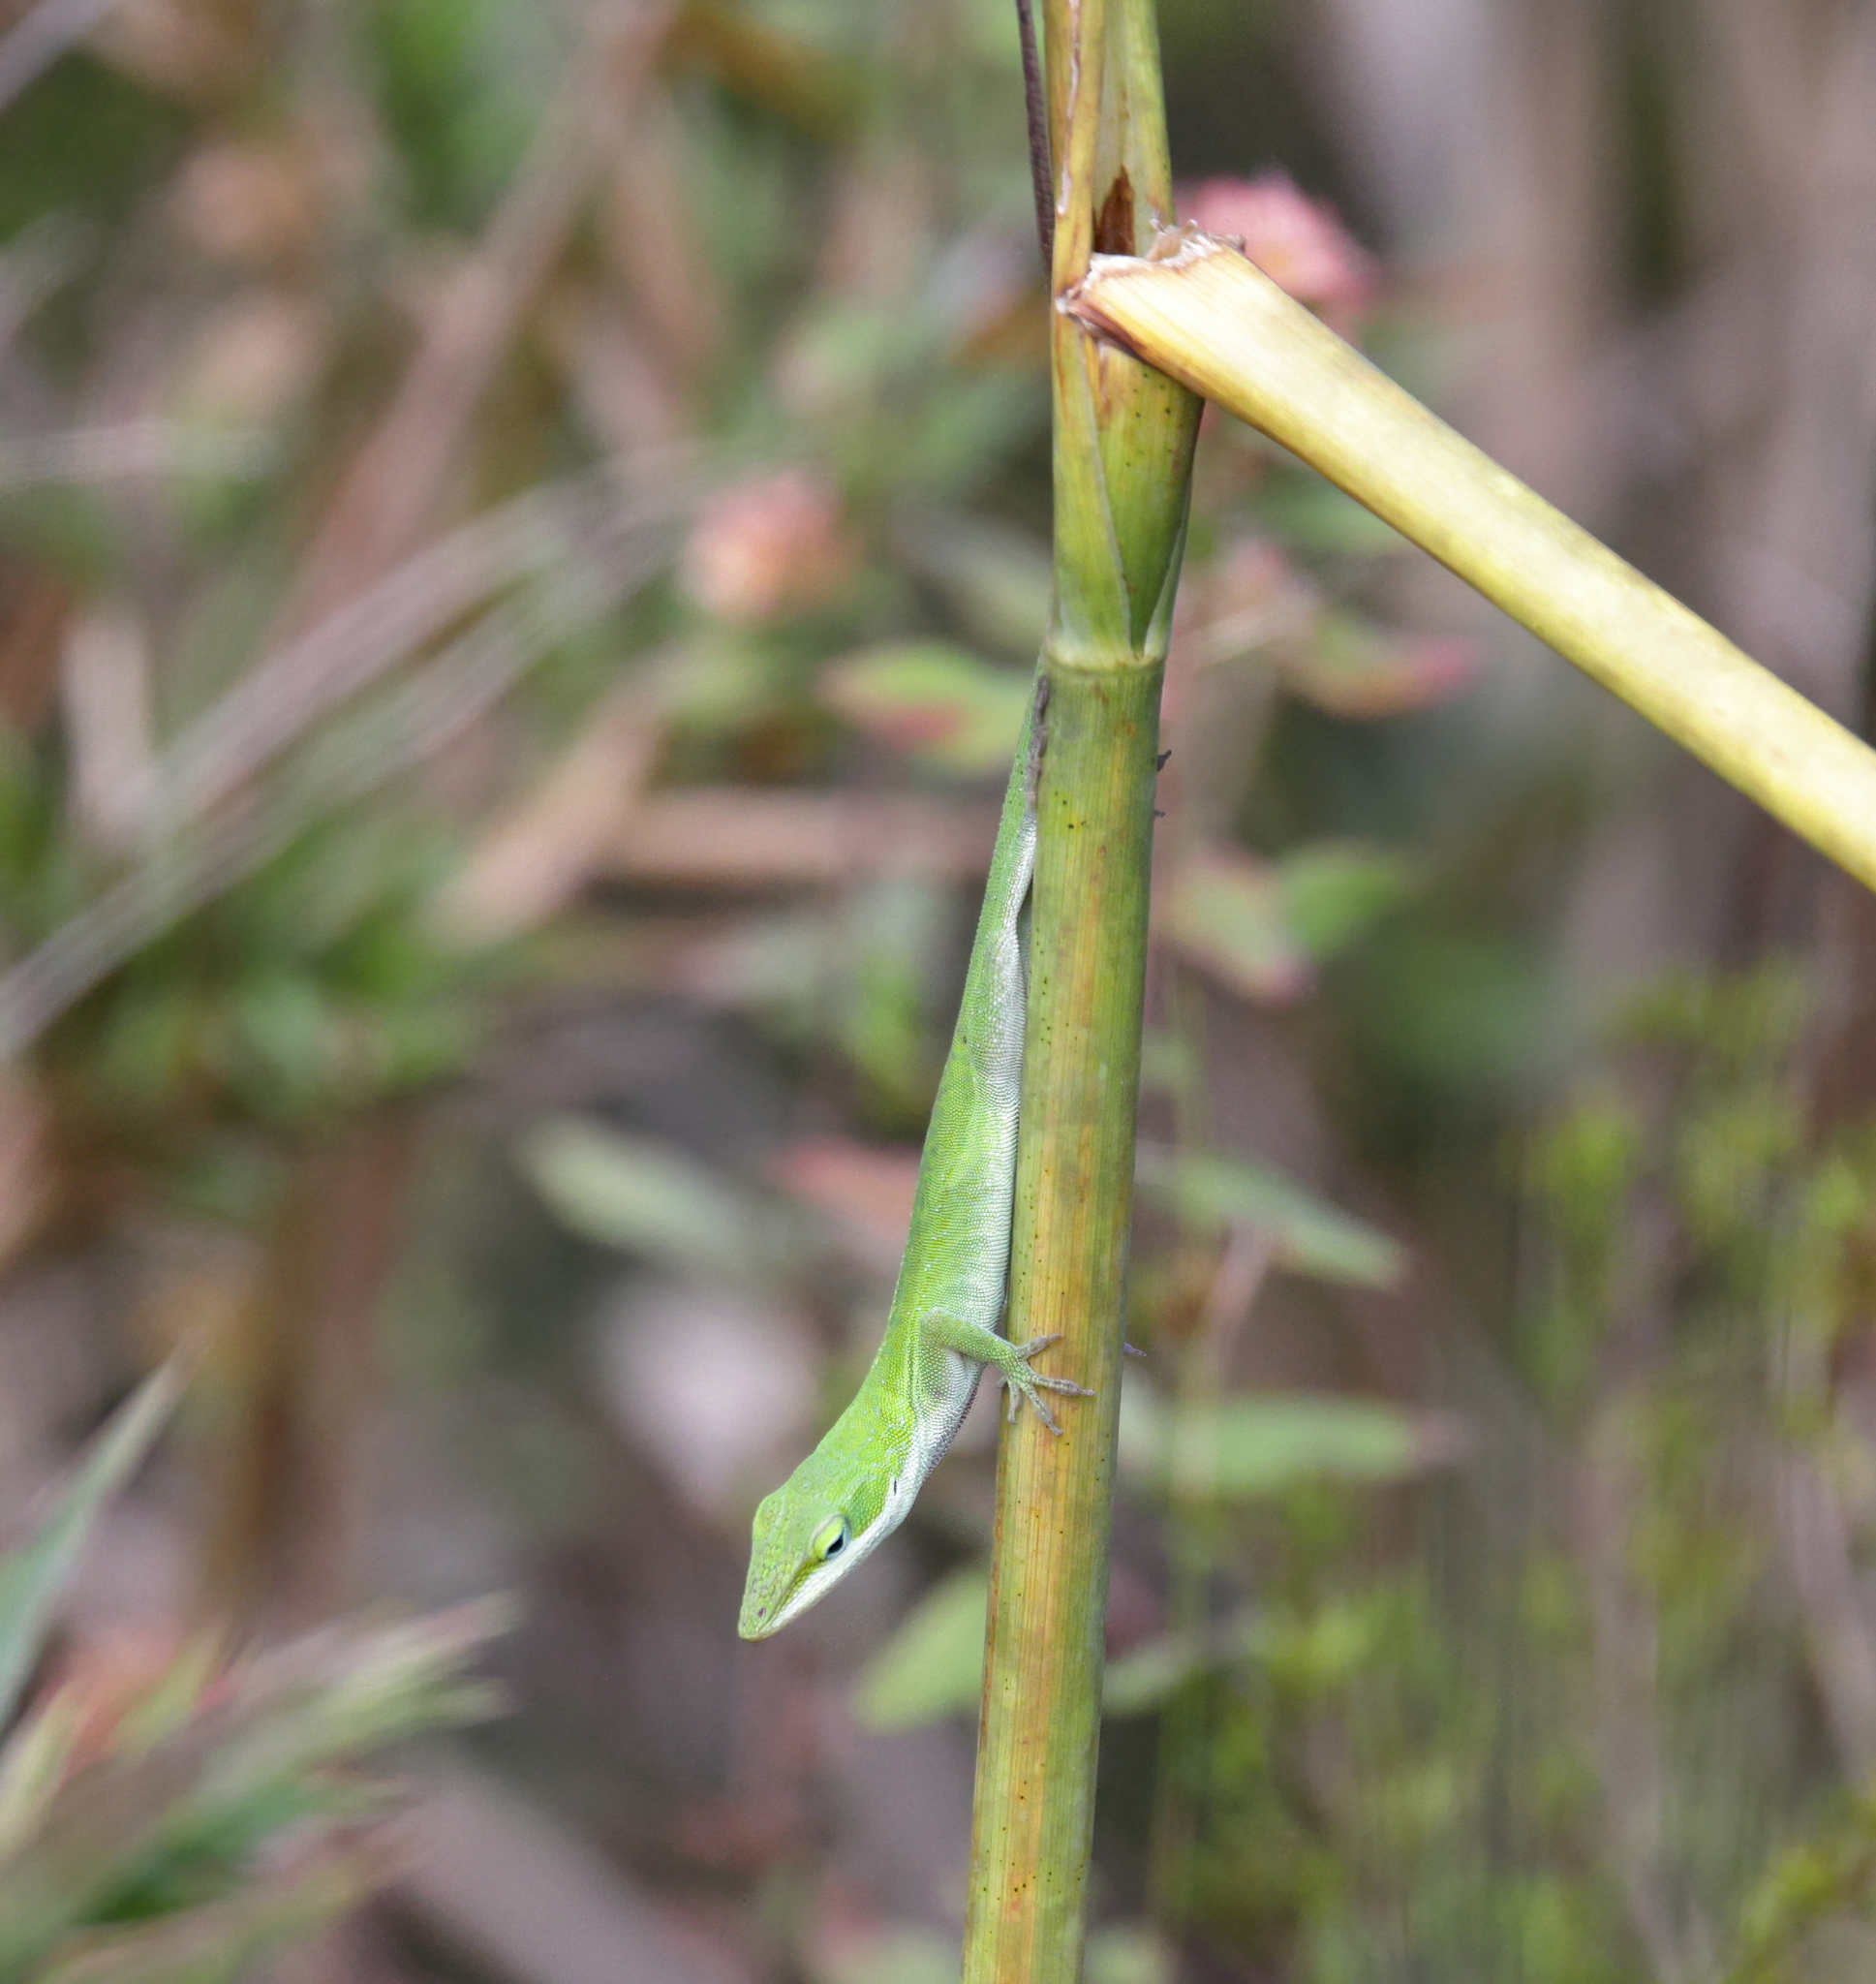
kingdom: Animalia
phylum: Chordata
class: Squamata
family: Dactyloidae
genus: Anolis
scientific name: Anolis carolinensis
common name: Green anole
